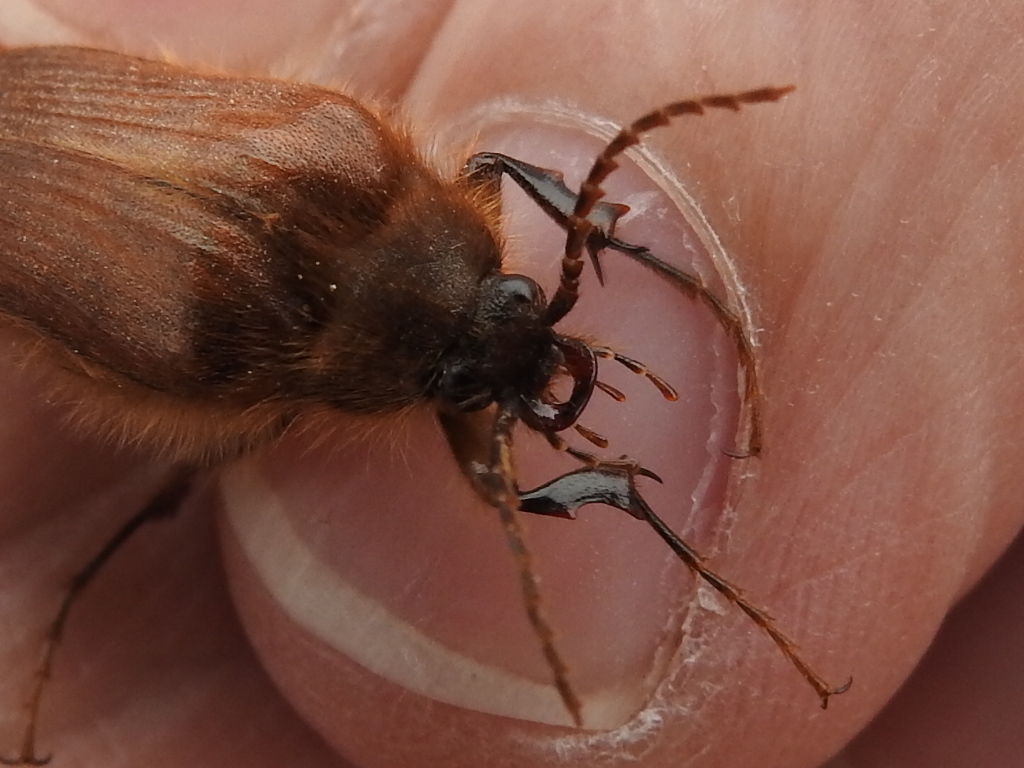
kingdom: Animalia
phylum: Arthropoda
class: Insecta
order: Coleoptera
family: Elateridae
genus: Scaptolenus
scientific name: Scaptolenus
